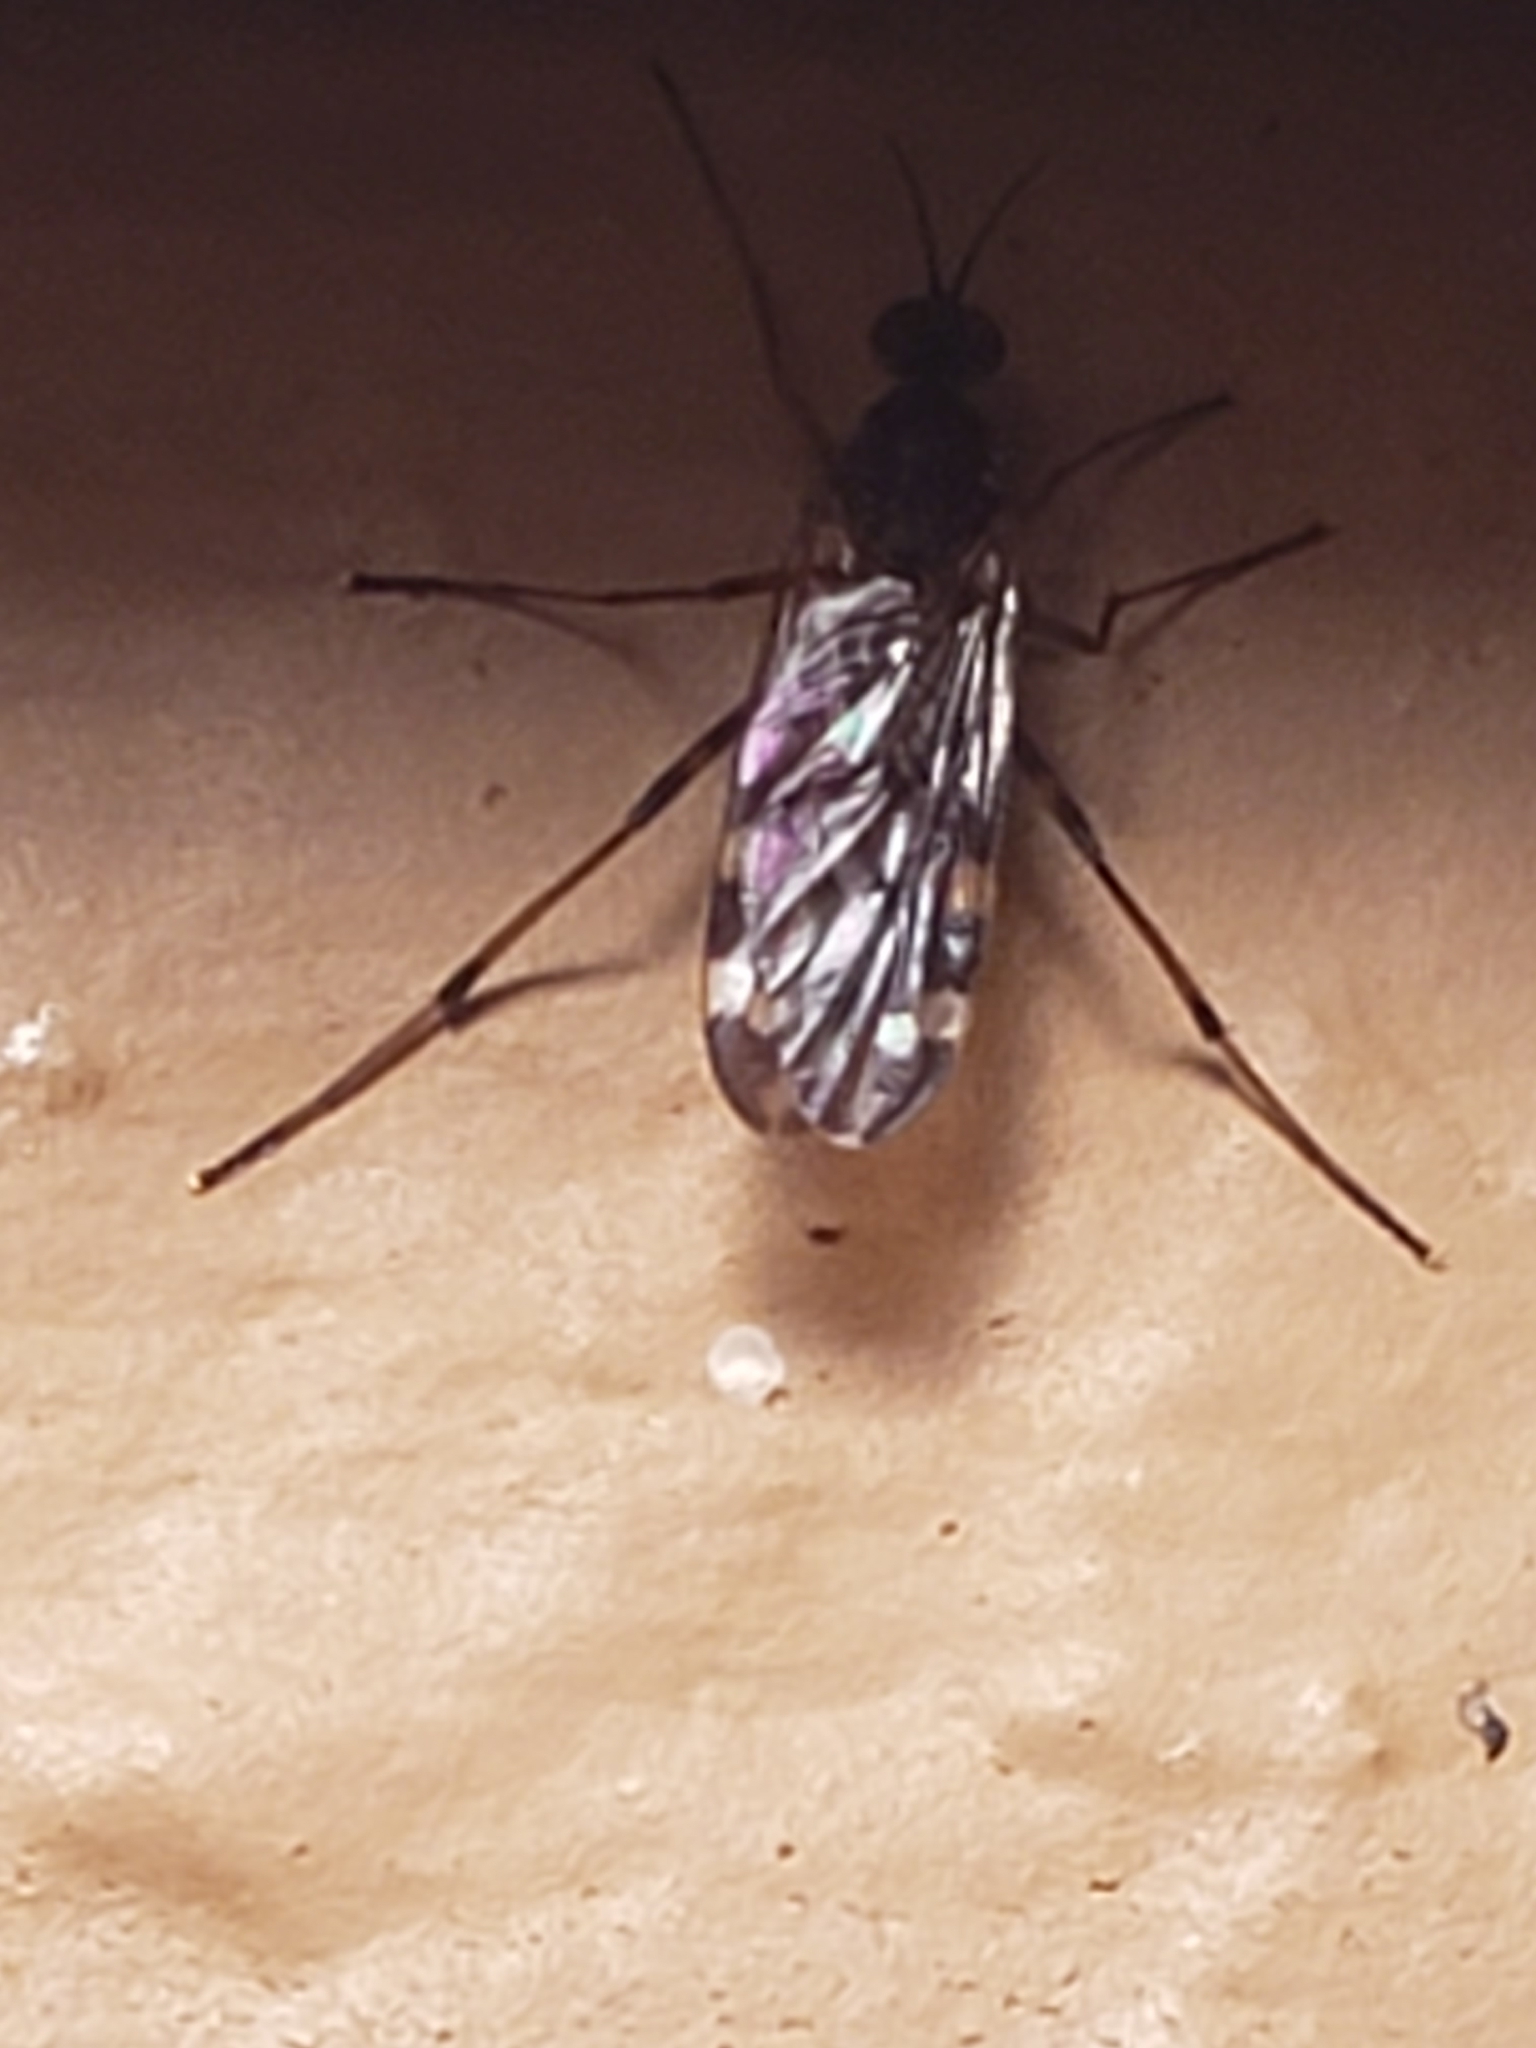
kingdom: Animalia
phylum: Arthropoda
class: Insecta
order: Diptera
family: Anisopodidae
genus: Sylvicola
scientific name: Sylvicola alternata
